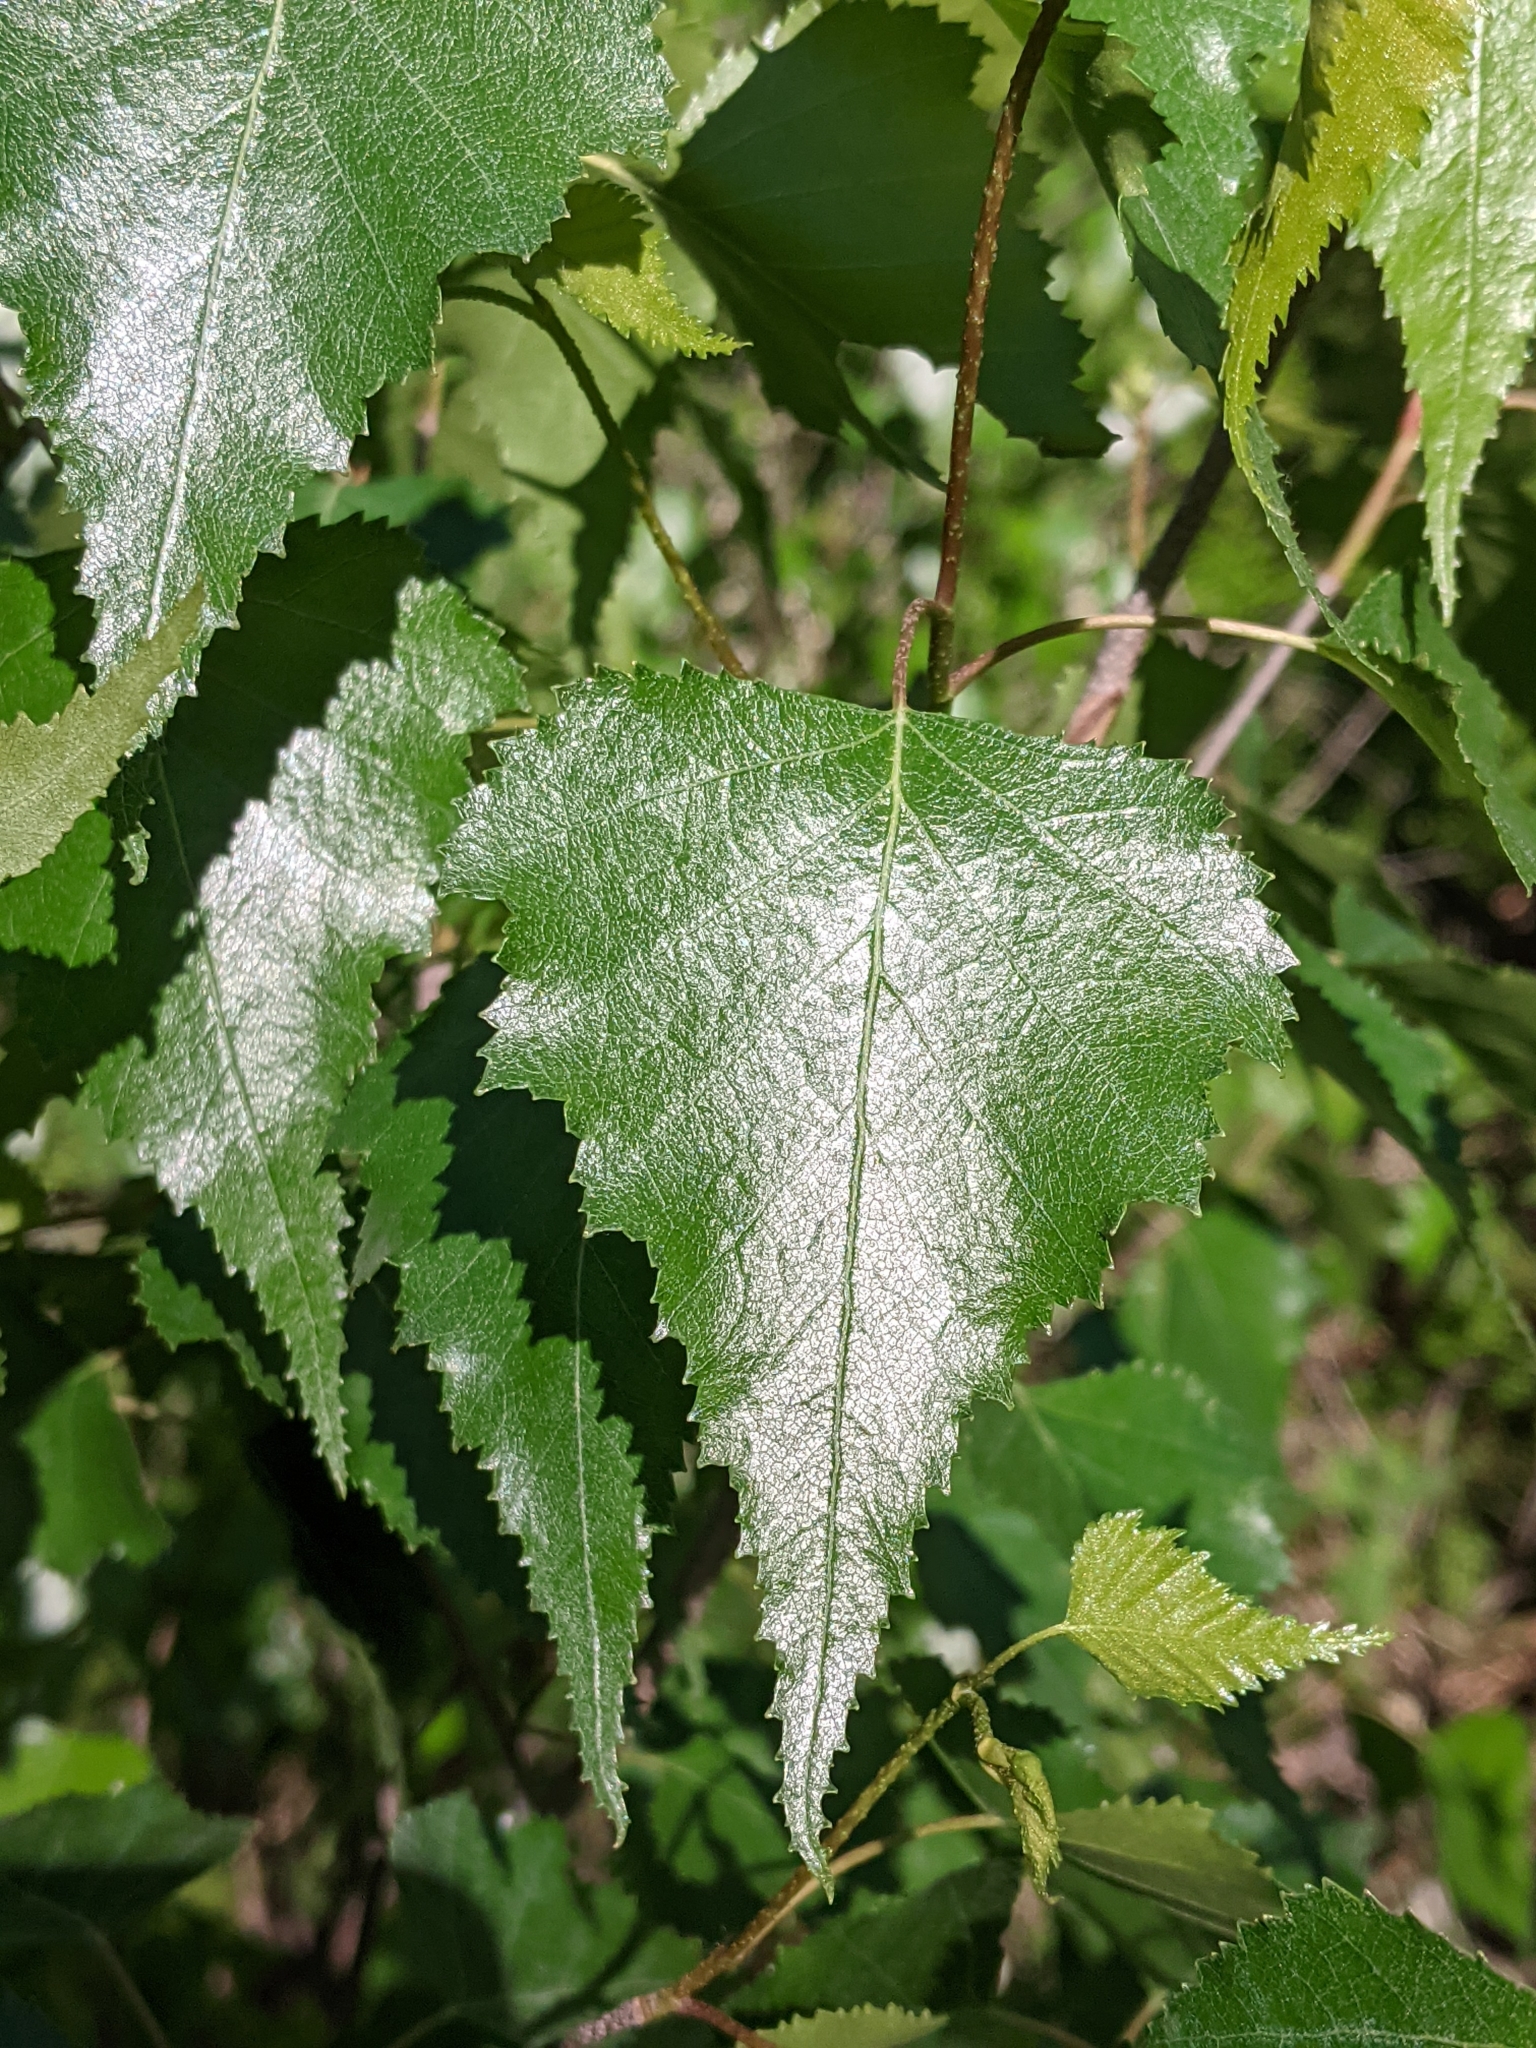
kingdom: Plantae
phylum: Tracheophyta
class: Magnoliopsida
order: Fagales
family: Betulaceae
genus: Betula
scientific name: Betula populifolia
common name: Fire birch
